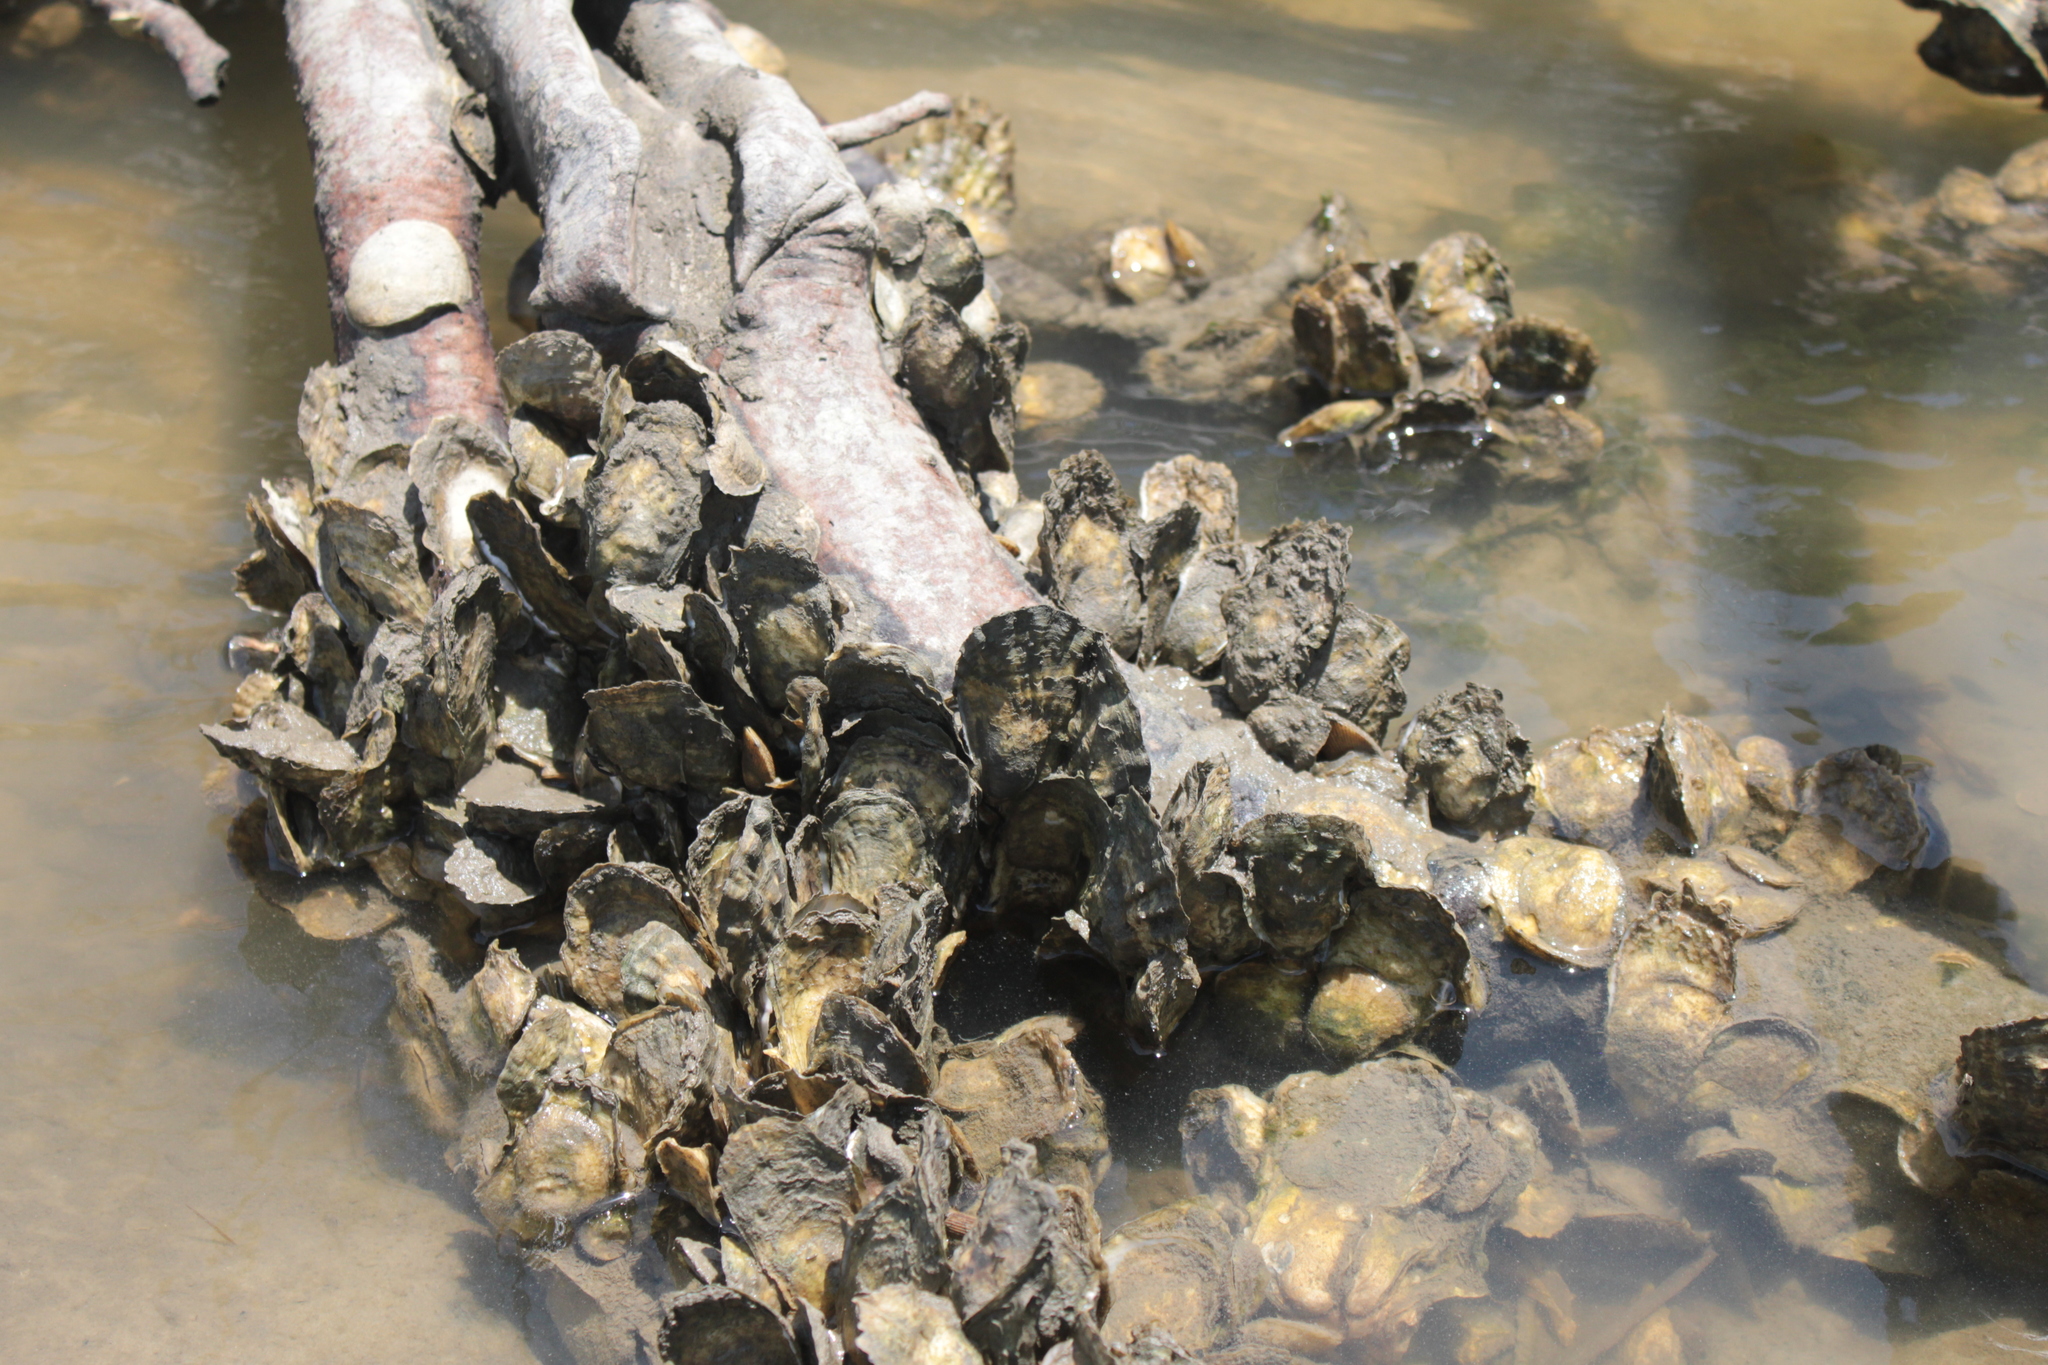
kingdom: Animalia
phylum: Mollusca
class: Bivalvia
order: Ostreida
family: Ostreidae
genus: Crassostrea
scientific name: Crassostrea virginica
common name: American oyster
